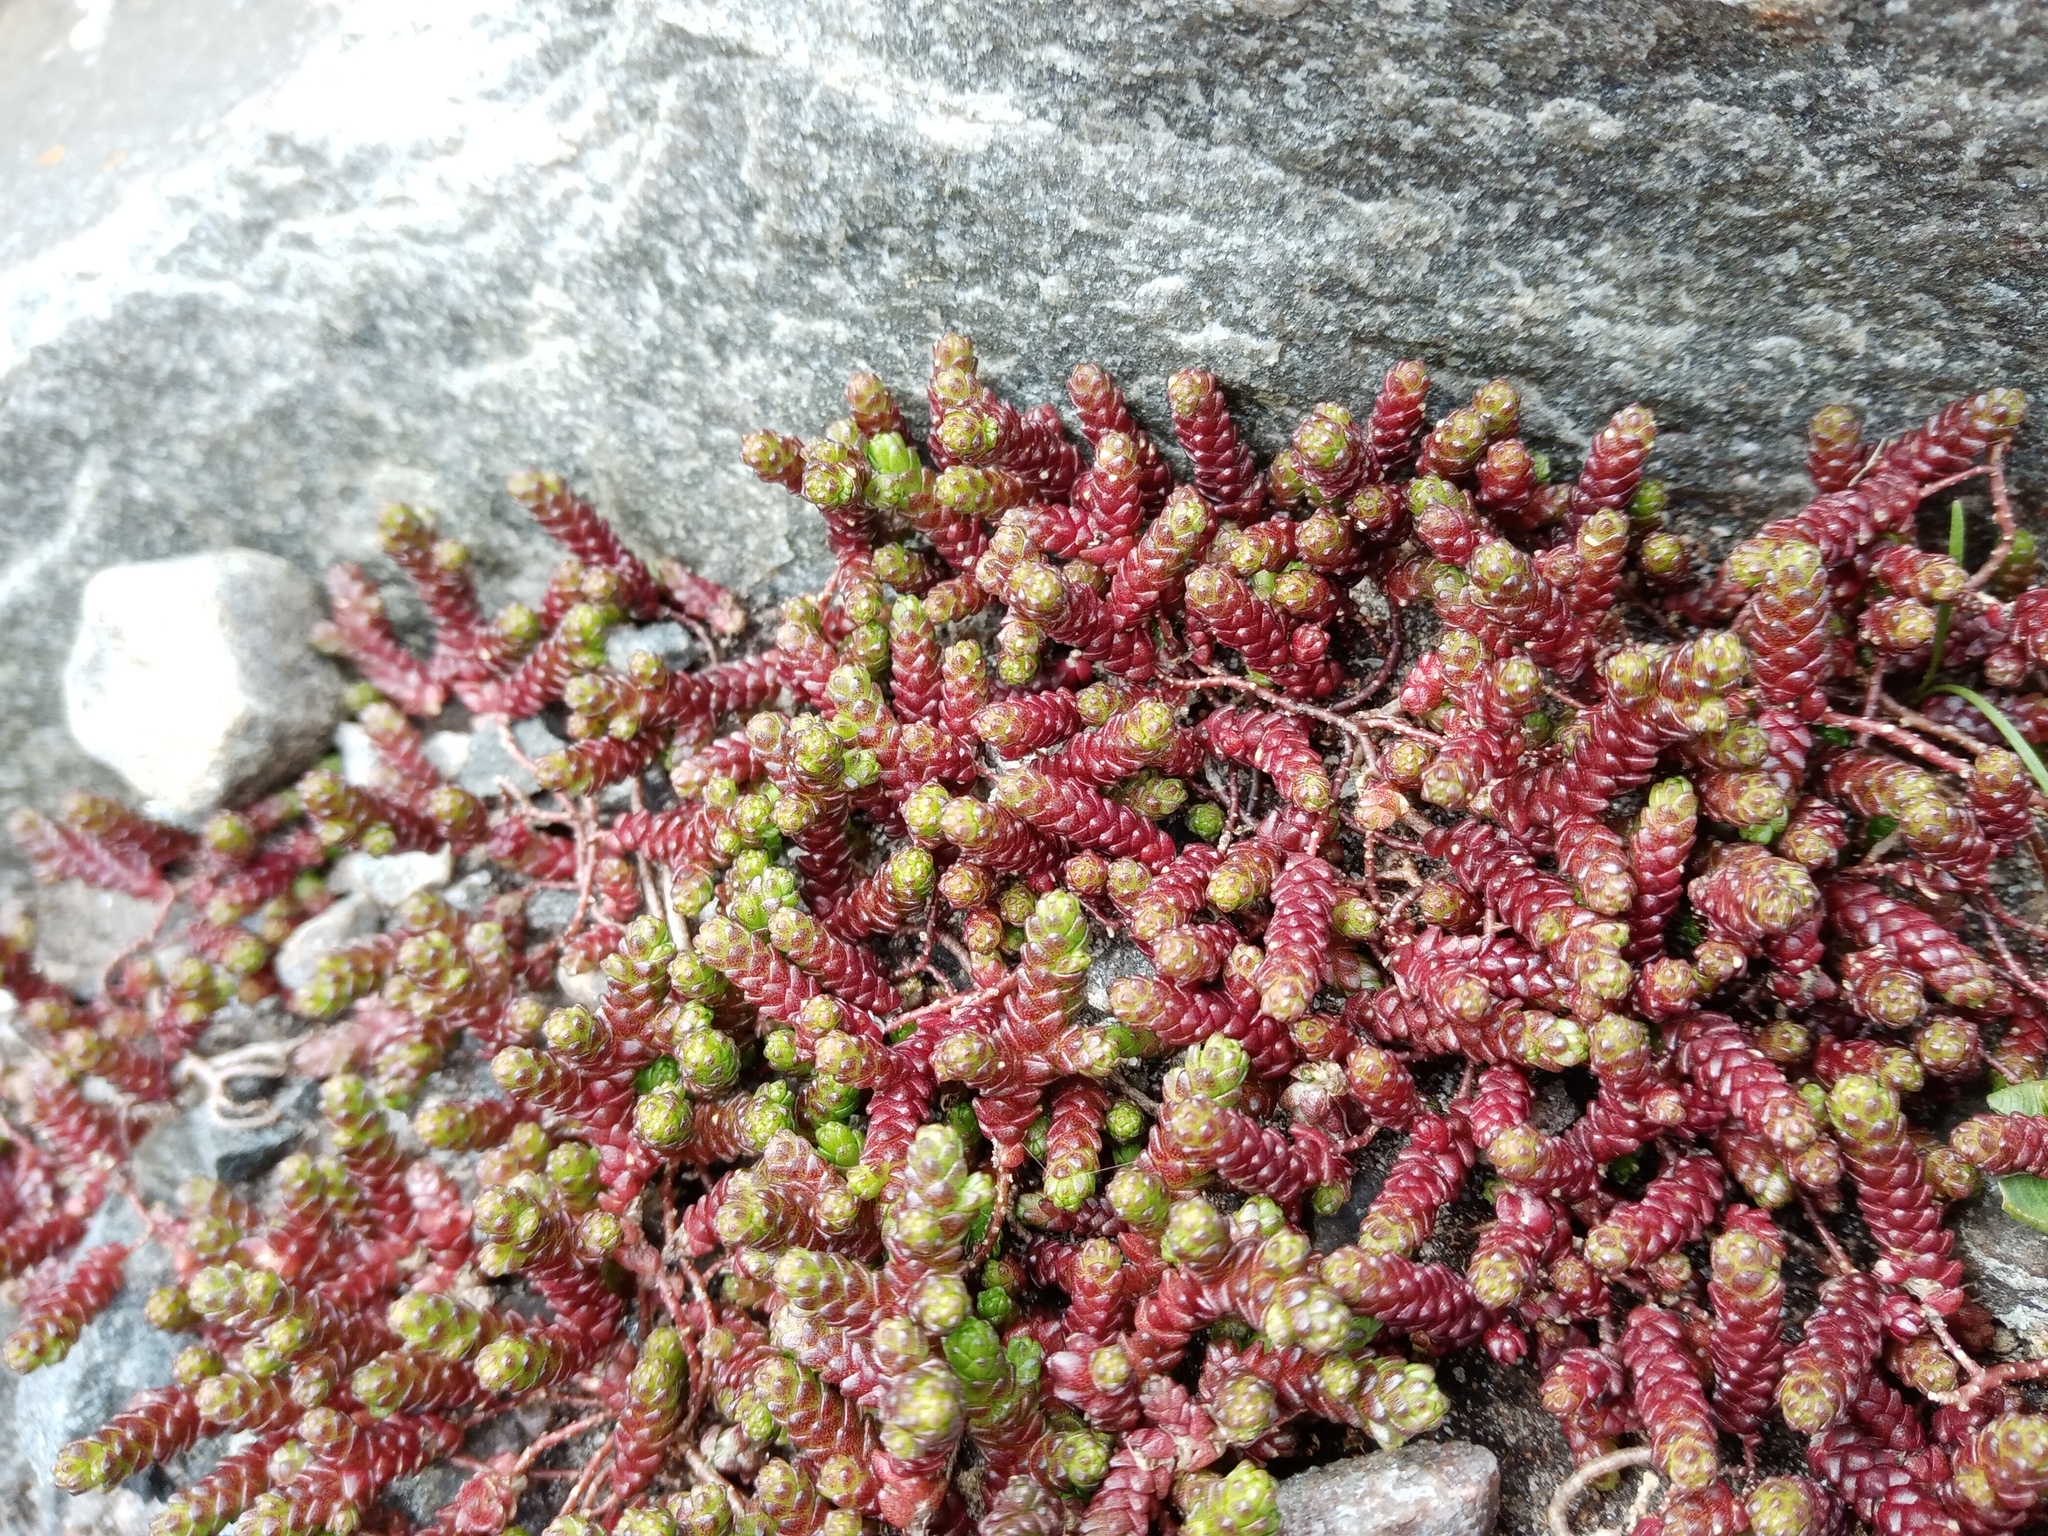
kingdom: Plantae
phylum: Tracheophyta
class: Magnoliopsida
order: Saxifragales
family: Crassulaceae
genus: Sedum
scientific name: Sedum acre
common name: Biting stonecrop
